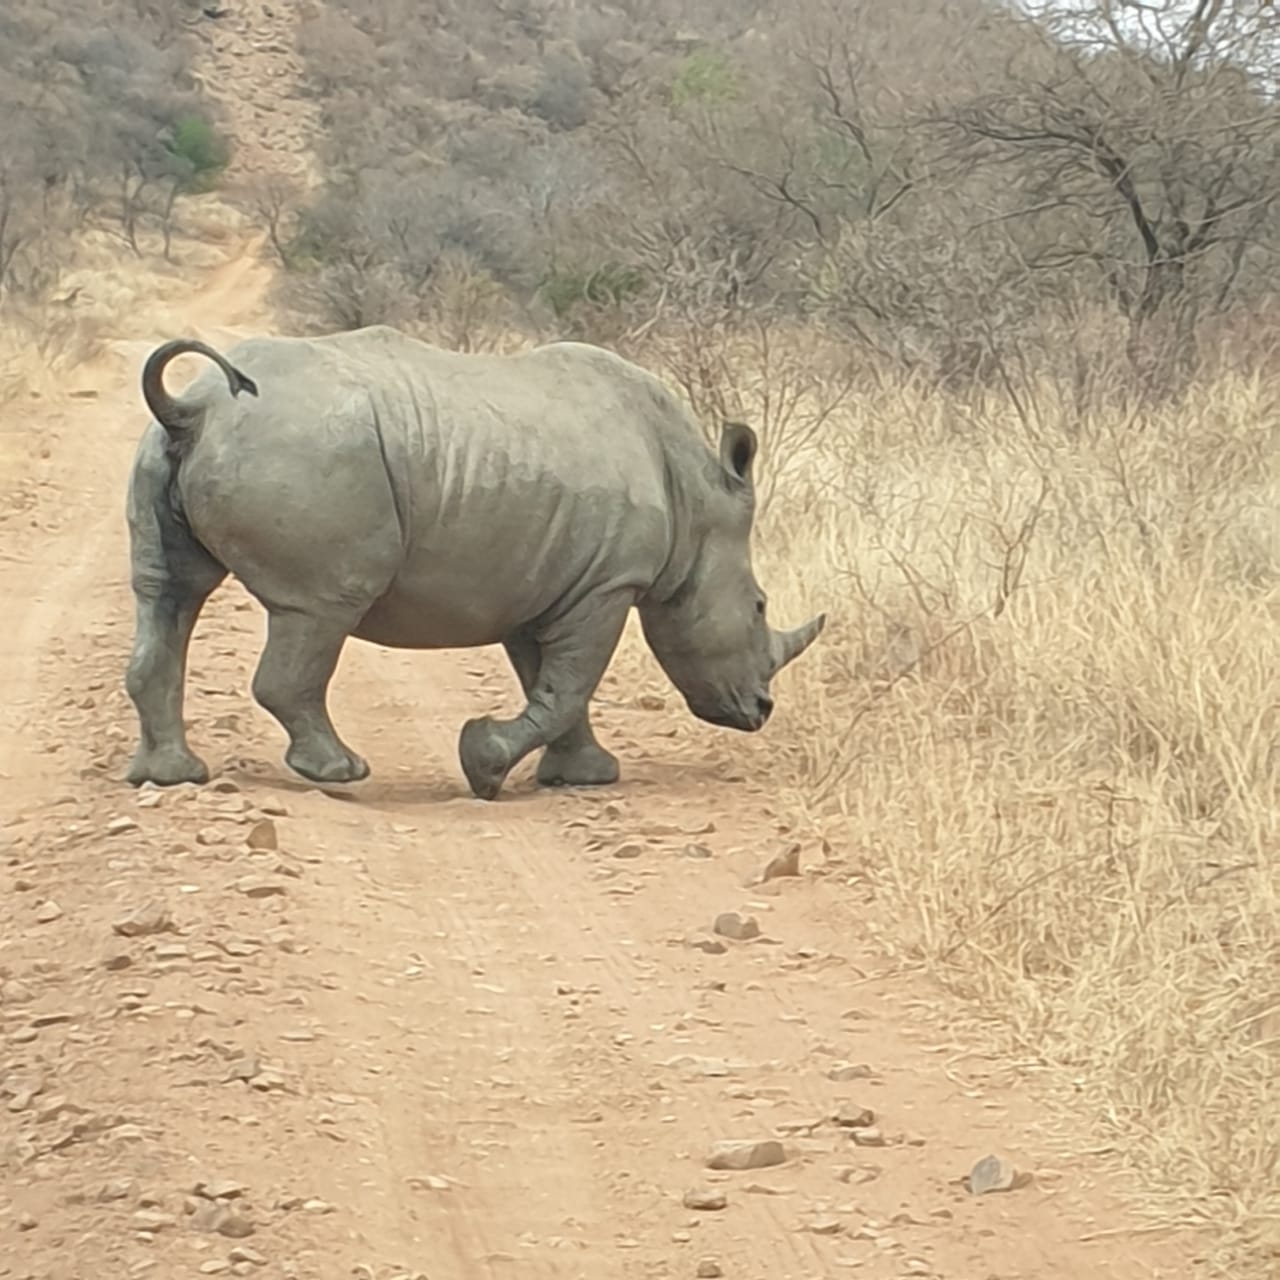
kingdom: Animalia
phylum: Chordata
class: Mammalia
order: Perissodactyla
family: Rhinocerotidae
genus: Ceratotherium
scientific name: Ceratotherium simum
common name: White rhinoceros
